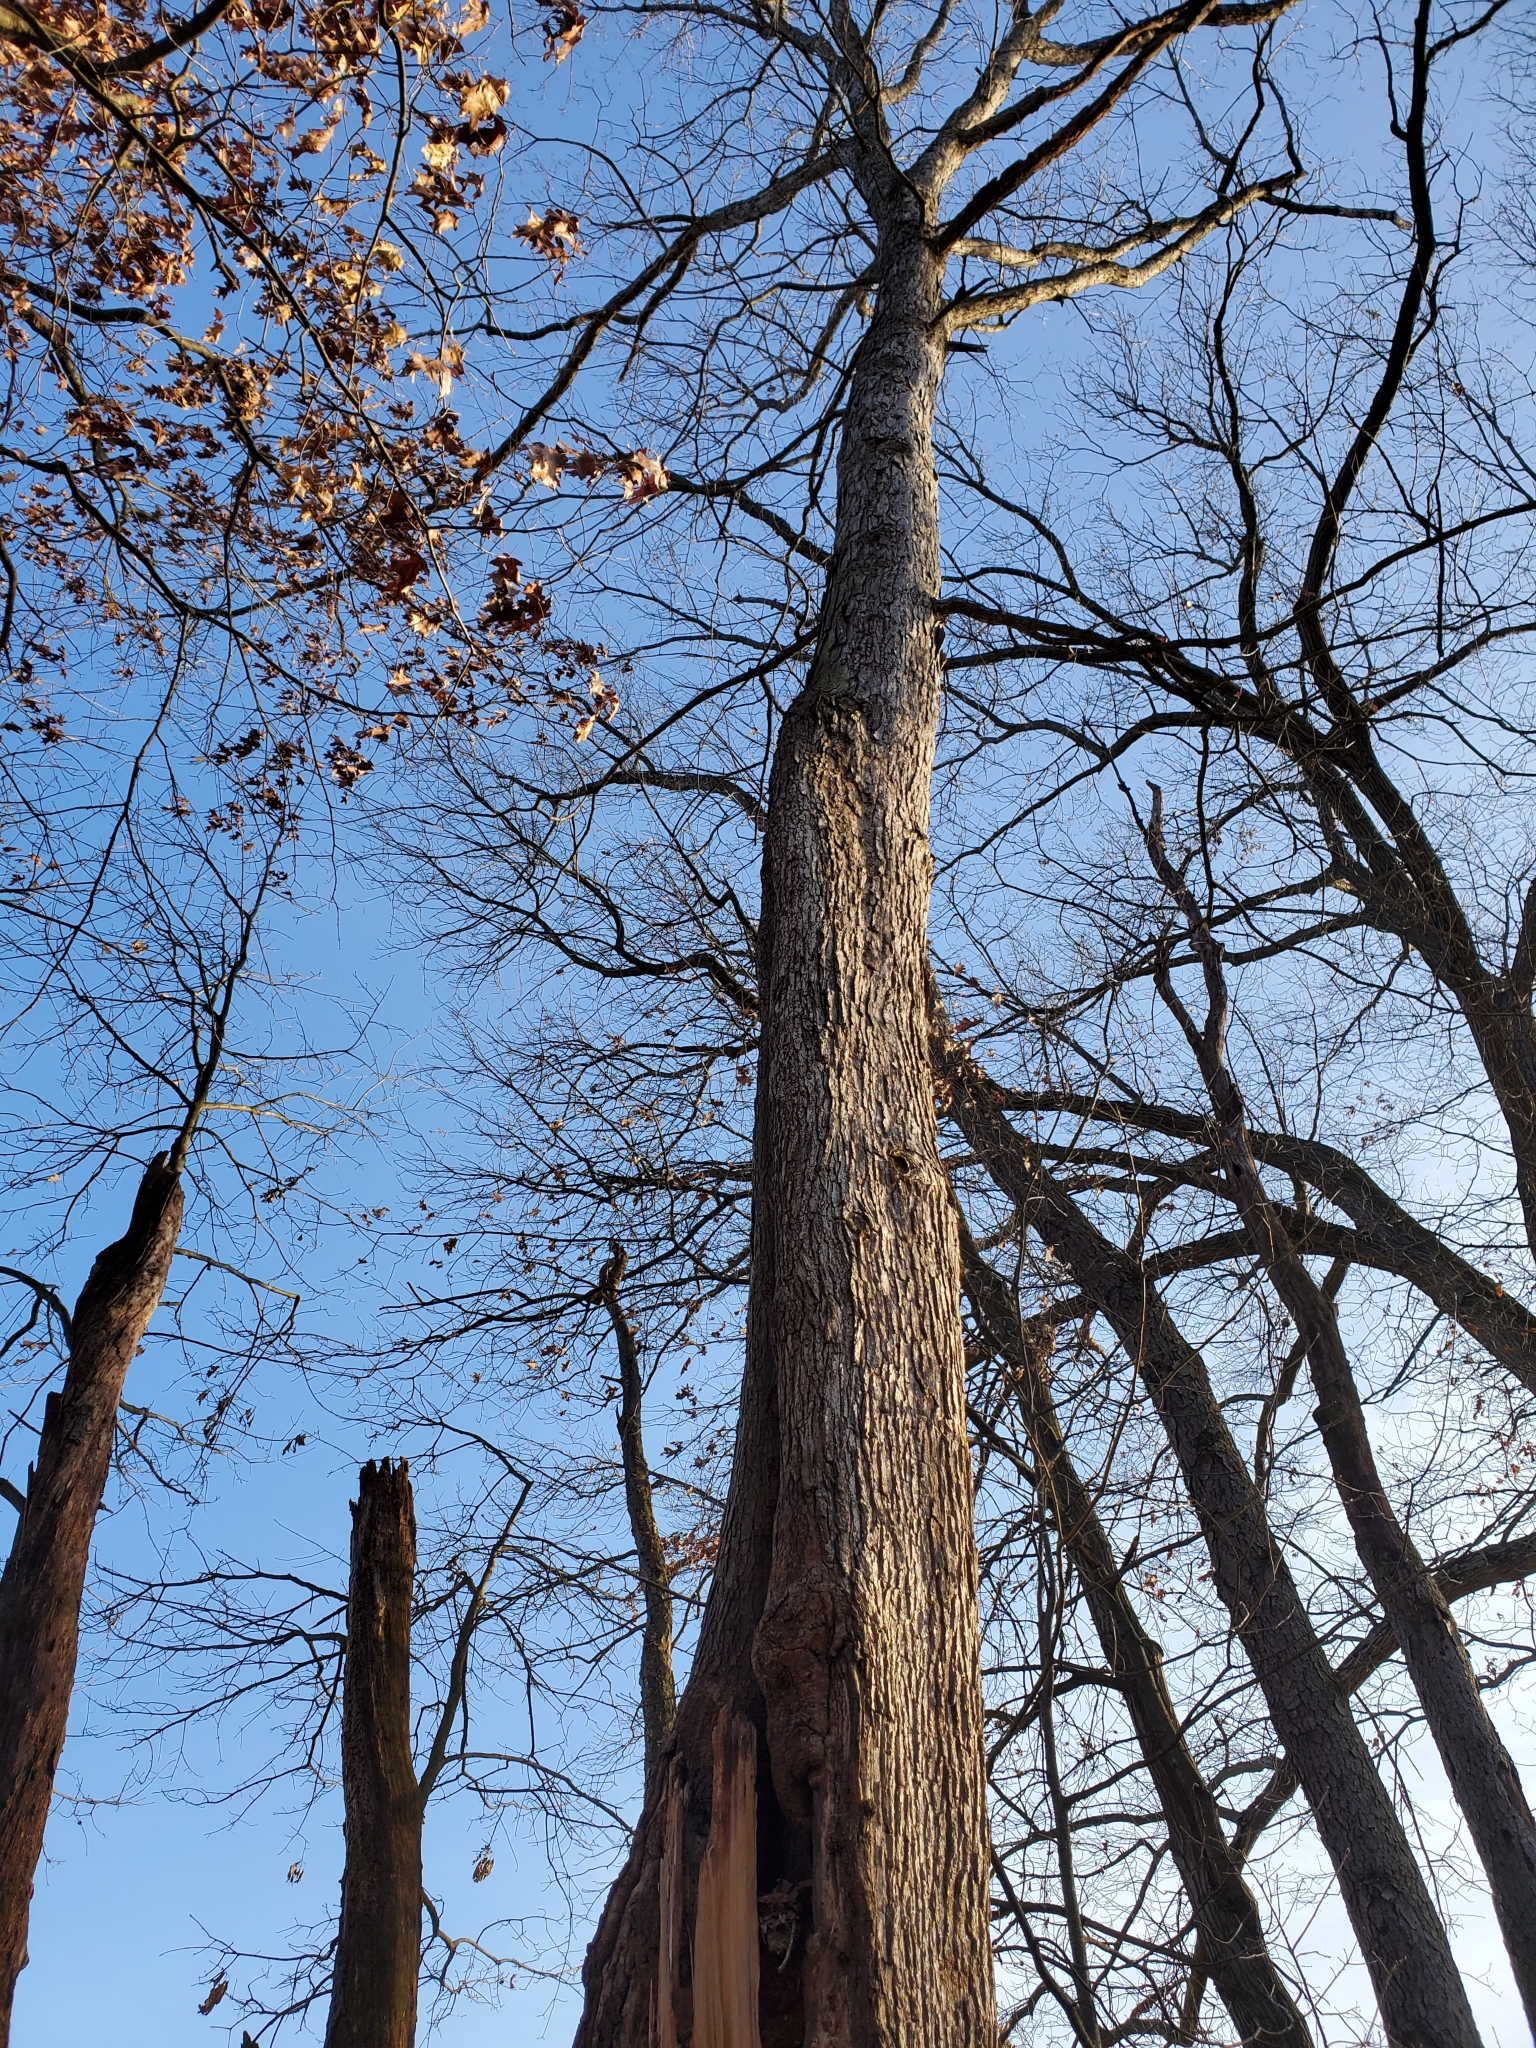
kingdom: Plantae
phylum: Tracheophyta
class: Magnoliopsida
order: Fagales
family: Fagaceae
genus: Quercus
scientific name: Quercus alba
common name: White oak
